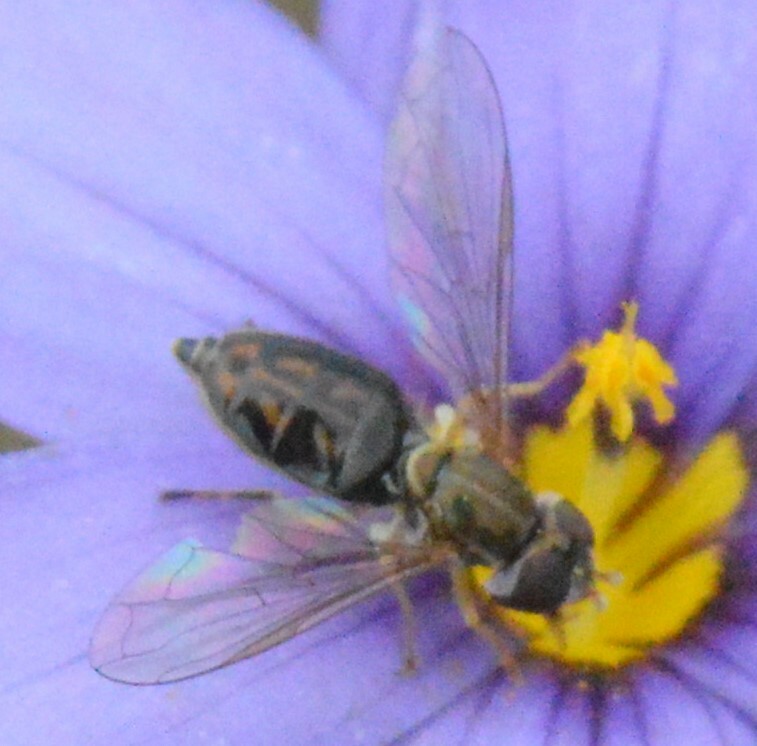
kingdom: Animalia
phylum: Arthropoda
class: Insecta
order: Diptera
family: Syrphidae
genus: Toxomerus
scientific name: Toxomerus marginatus
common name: Syrphid fly
